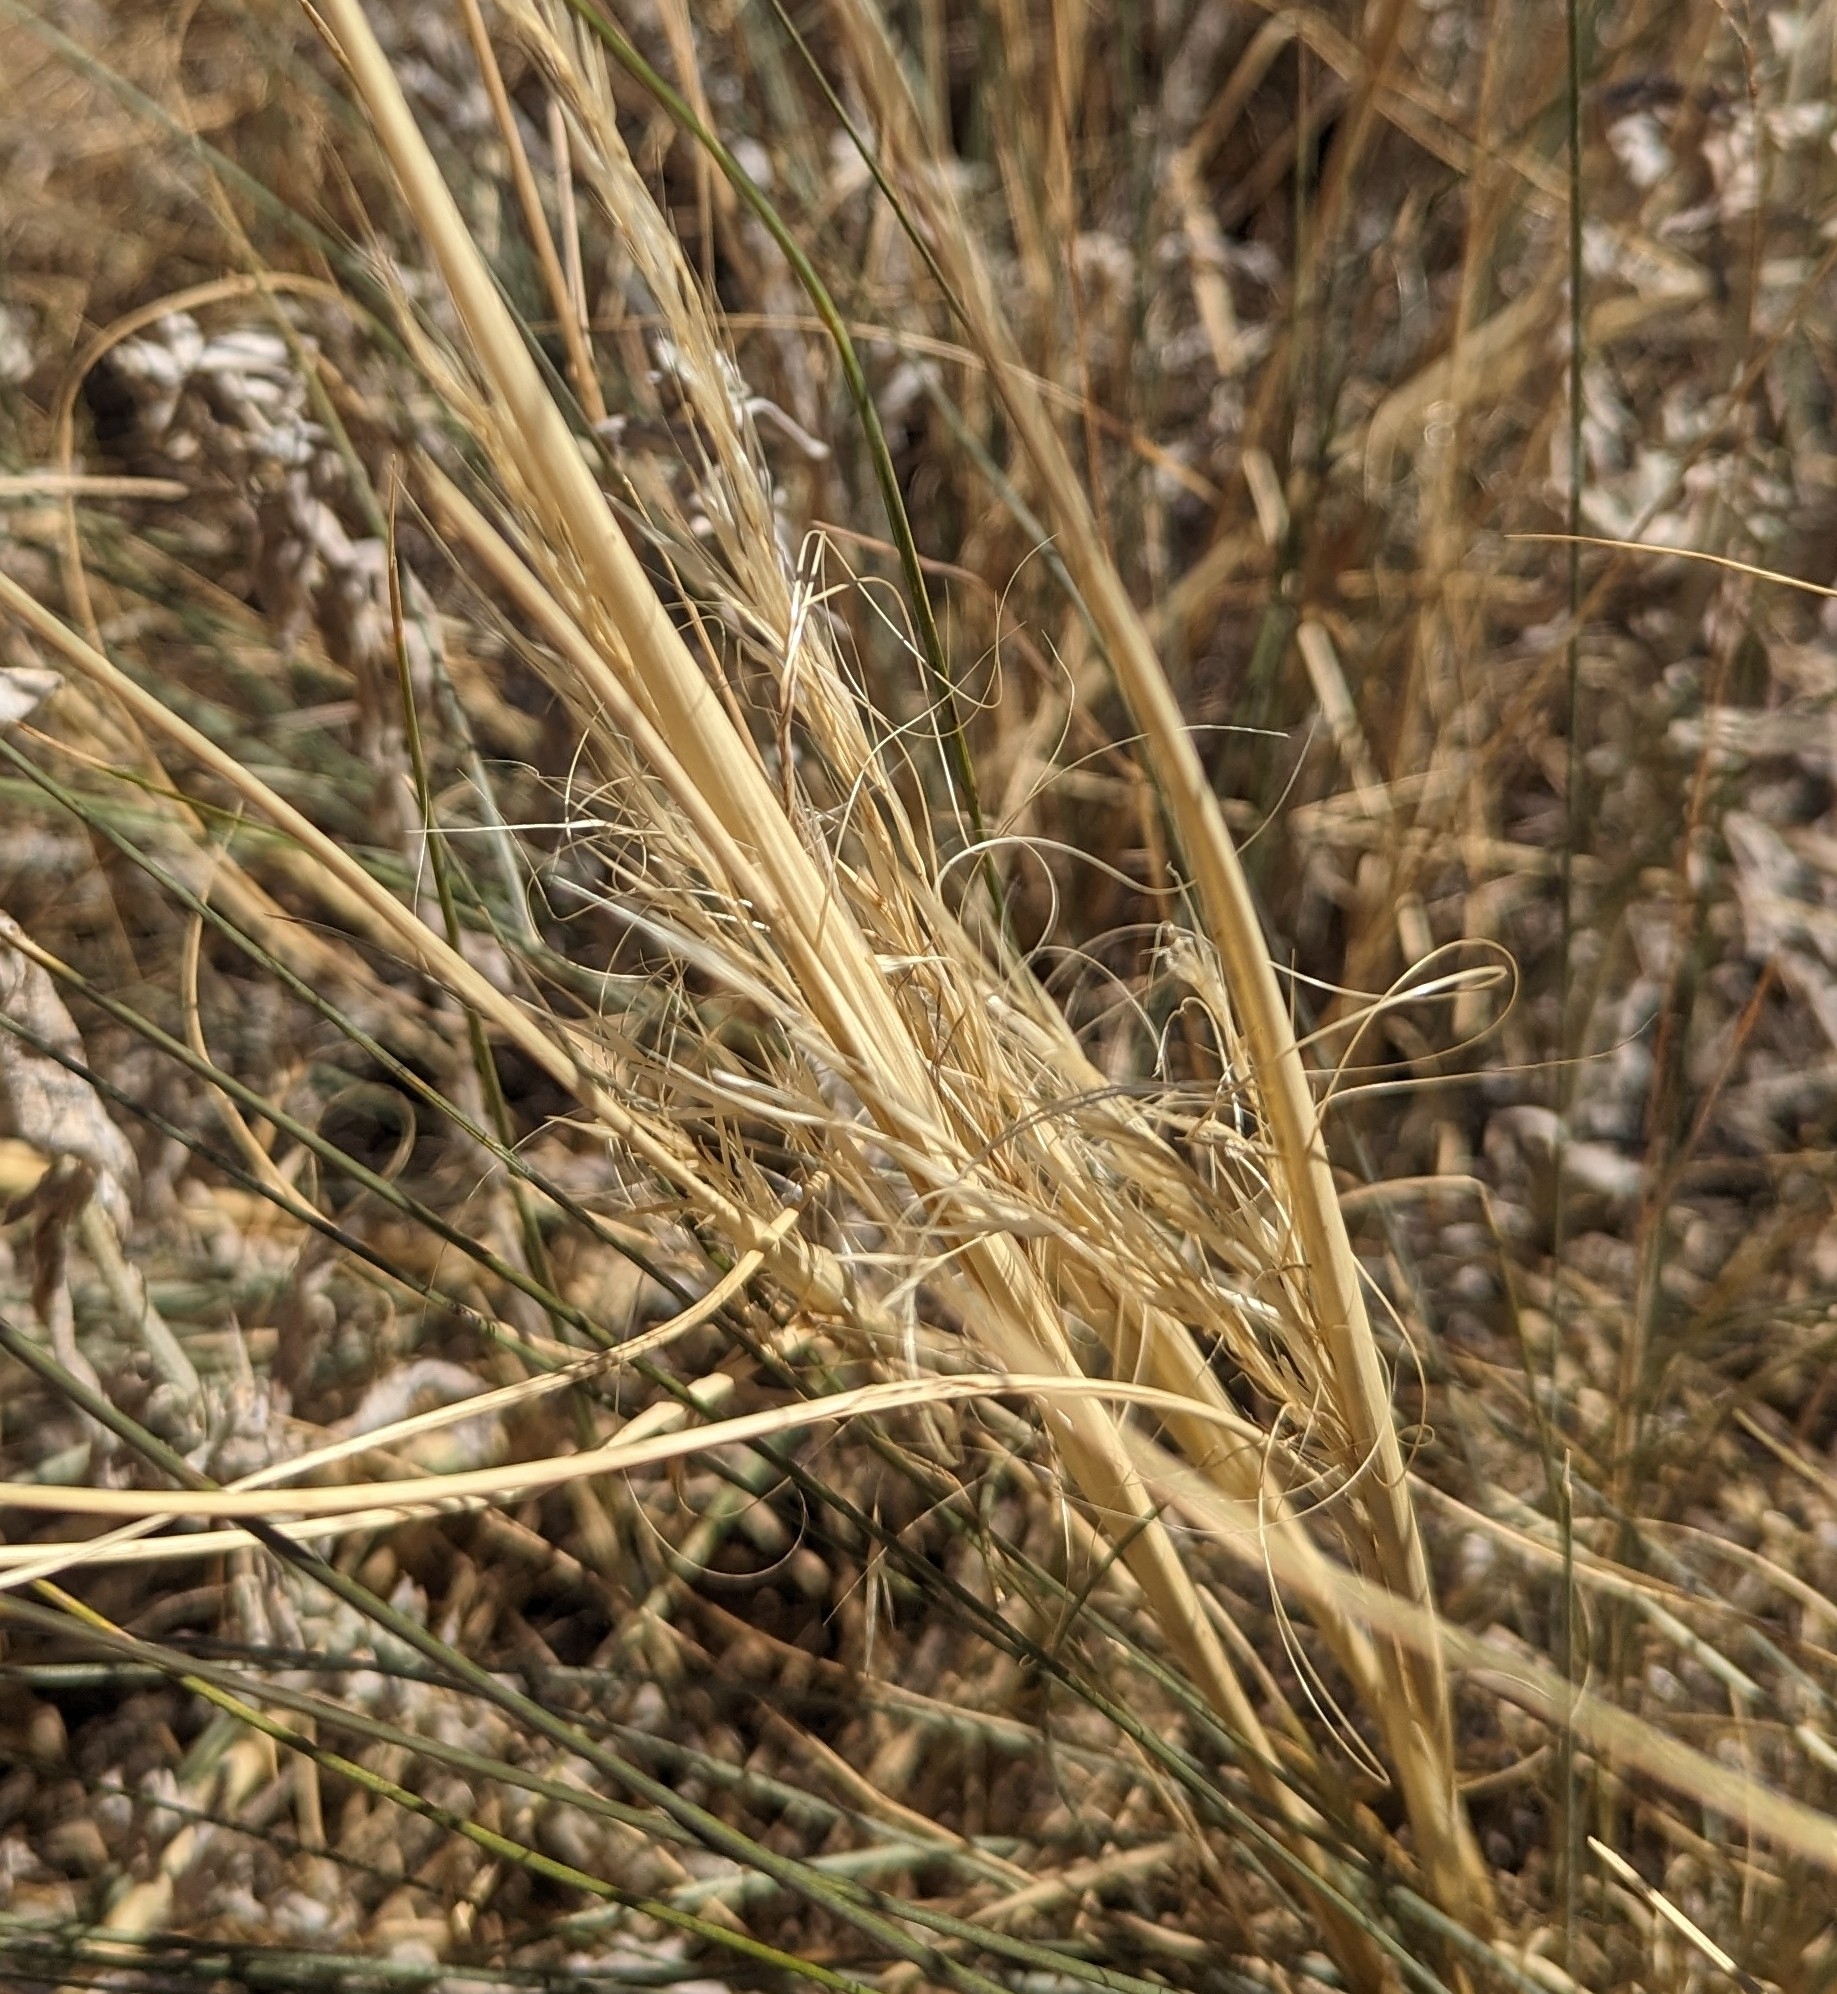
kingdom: Plantae
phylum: Tracheophyta
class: Liliopsida
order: Poales
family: Poaceae
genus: Hesperostipa
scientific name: Hesperostipa comata
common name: Needle-and-thread grass
